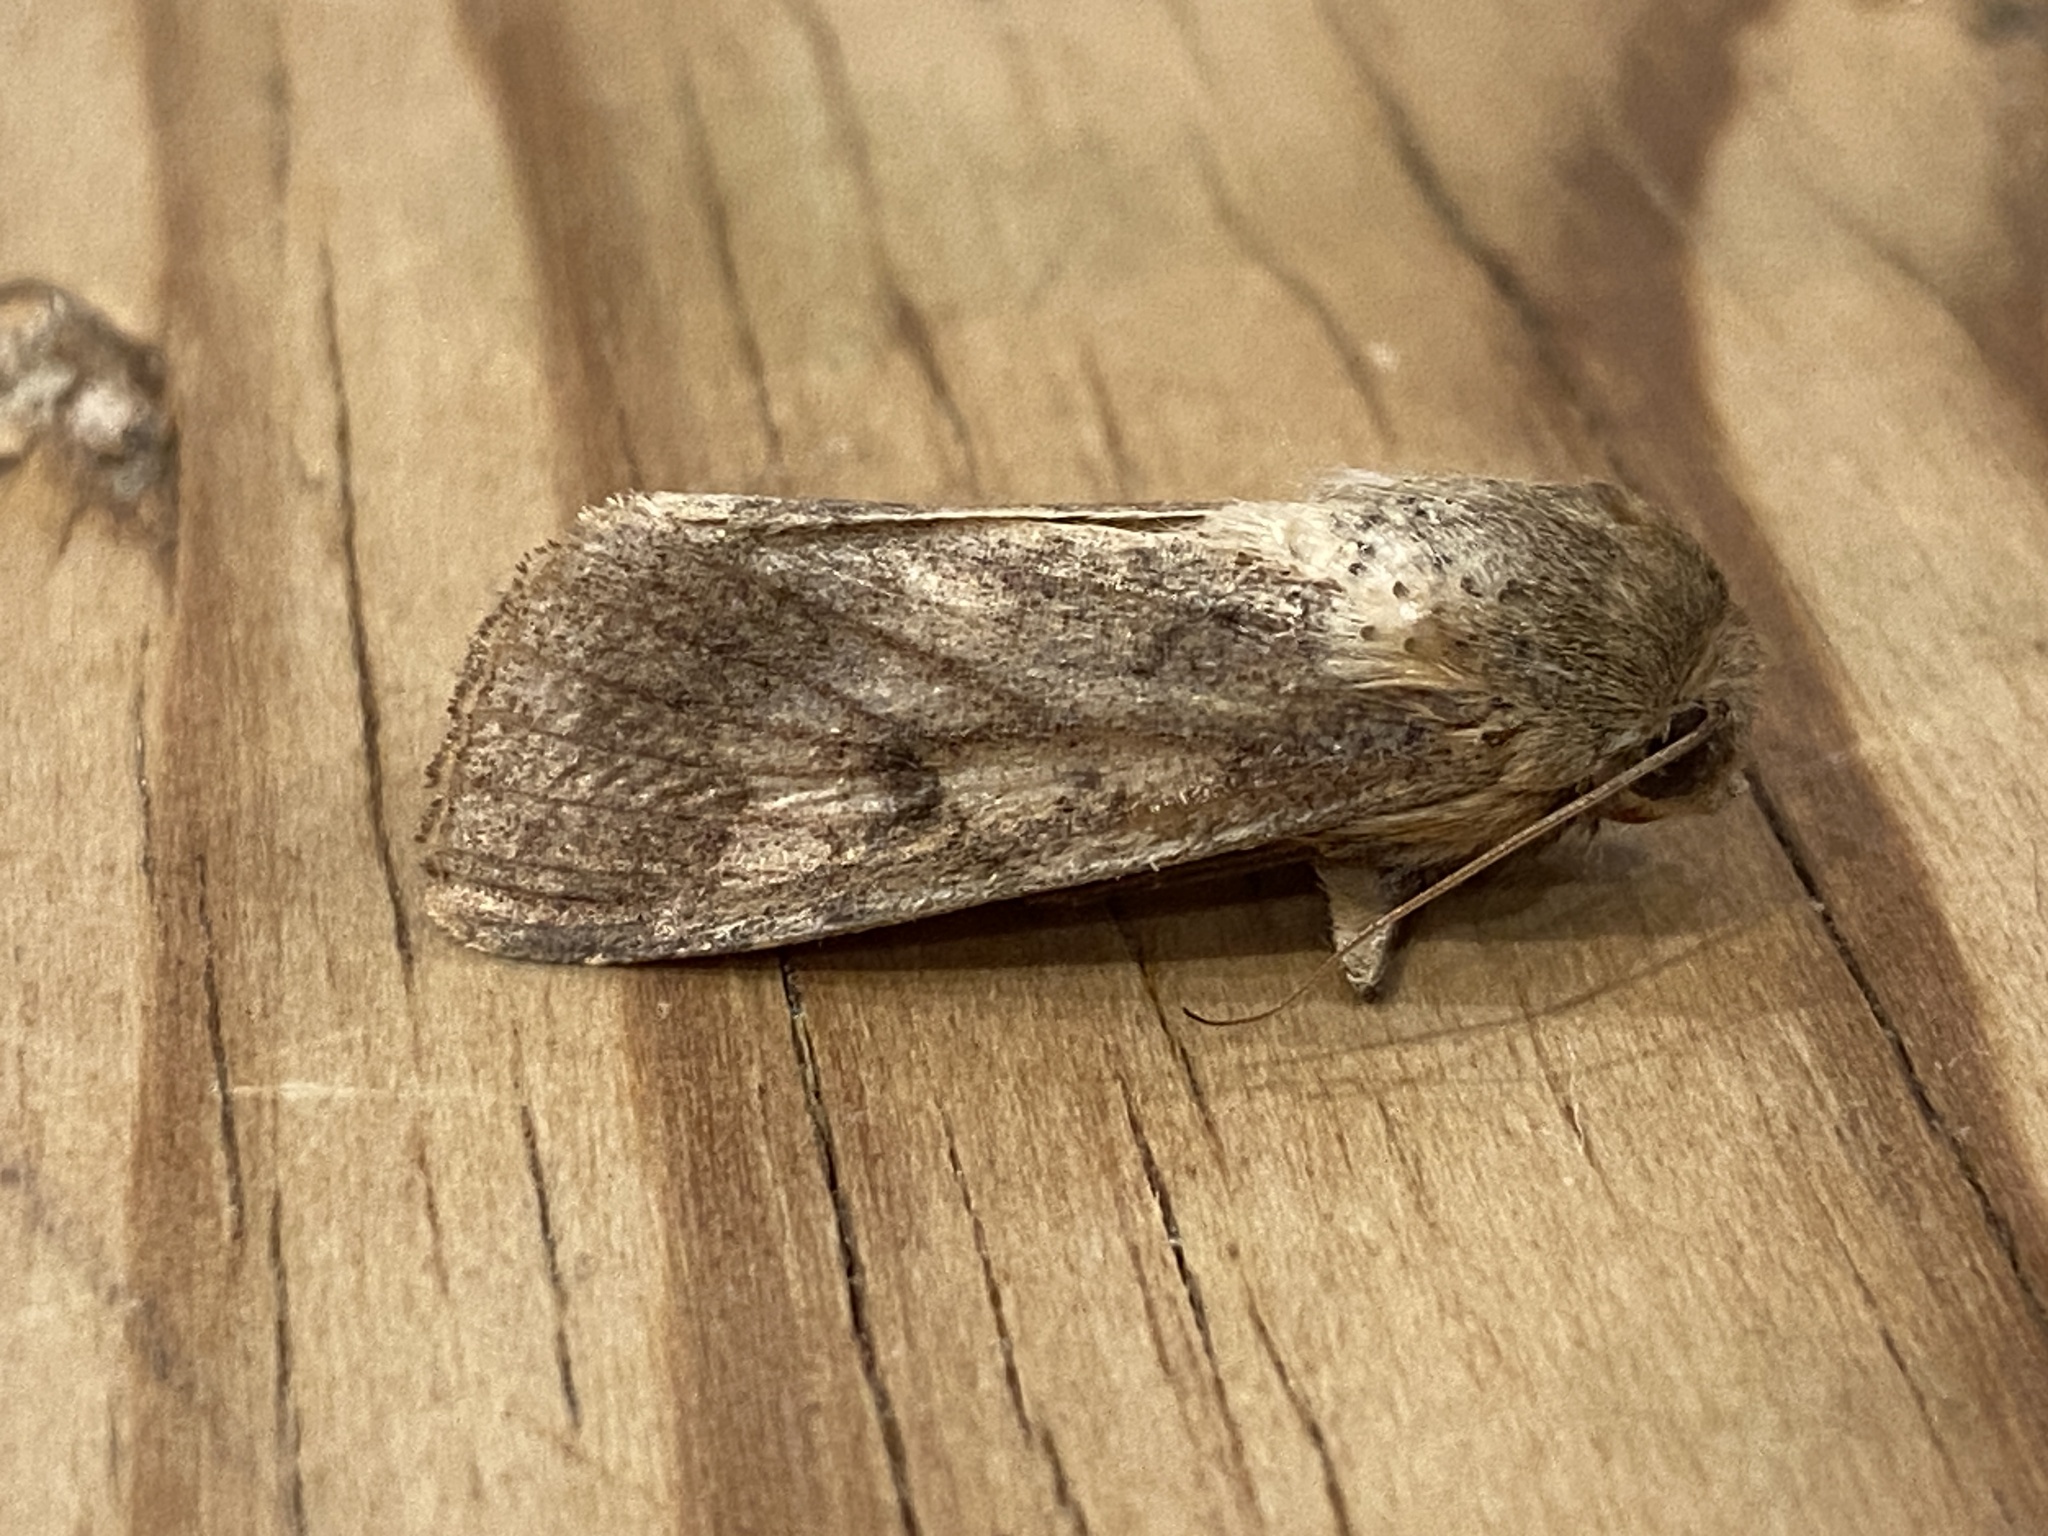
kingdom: Animalia
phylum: Arthropoda
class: Insecta
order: Lepidoptera
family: Noctuidae
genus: Helicoverpa
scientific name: Helicoverpa armigera
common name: Cotton bollworm
